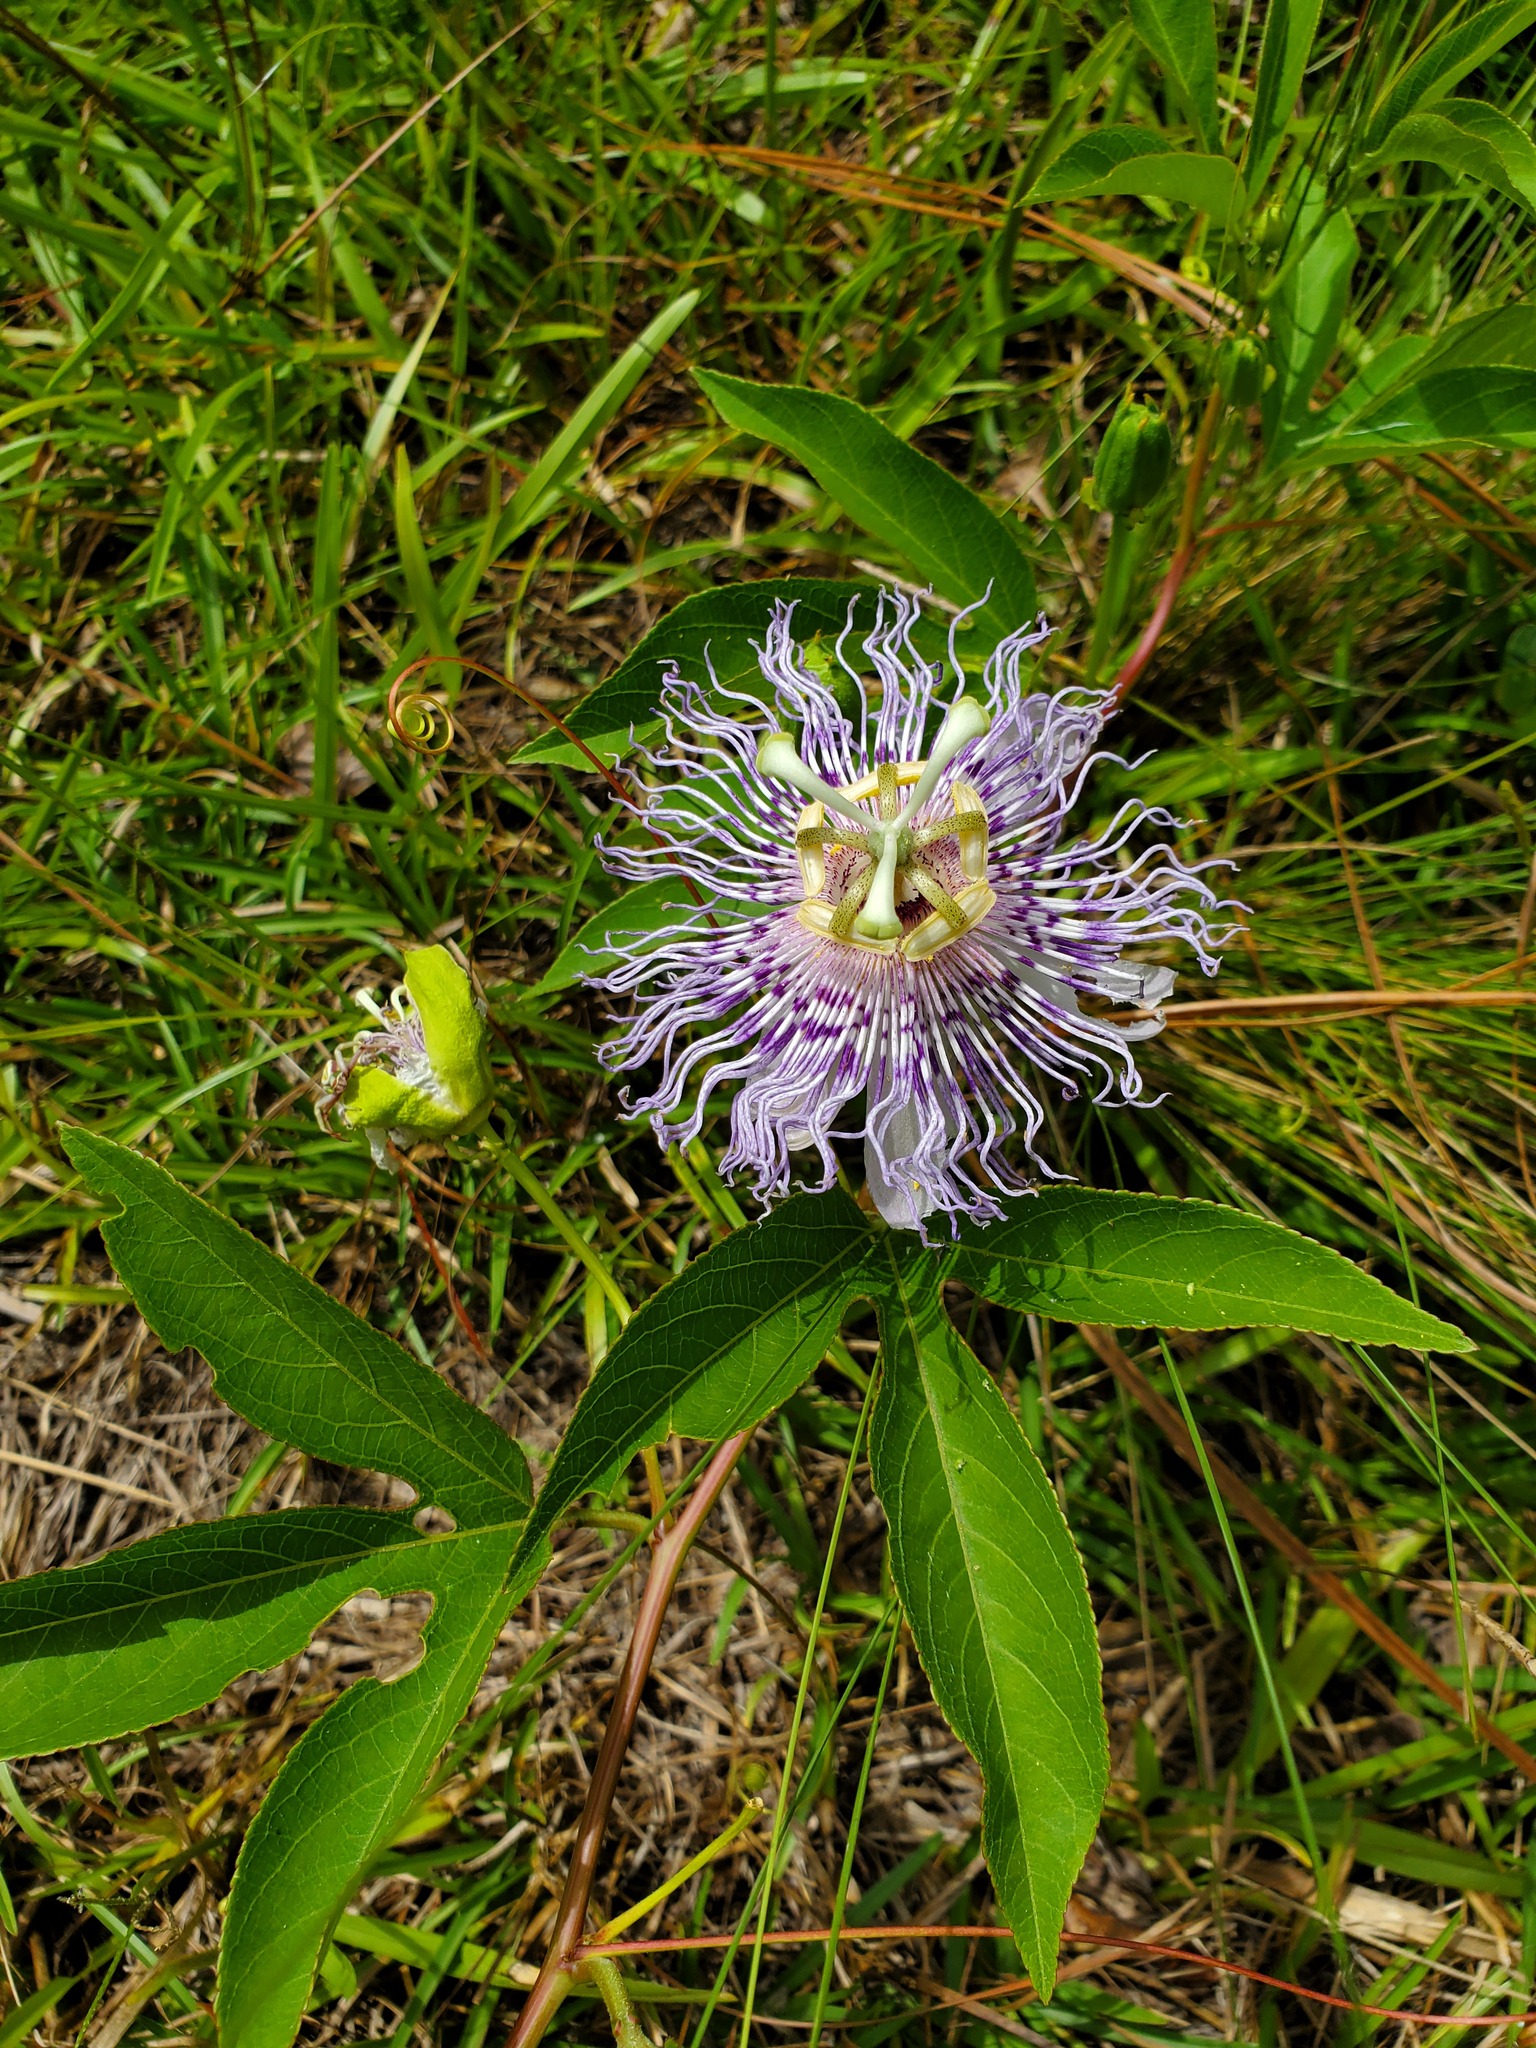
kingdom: Plantae
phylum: Tracheophyta
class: Magnoliopsida
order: Malpighiales
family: Passifloraceae
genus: Passiflora
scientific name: Passiflora incarnata
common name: Apricot-vine
